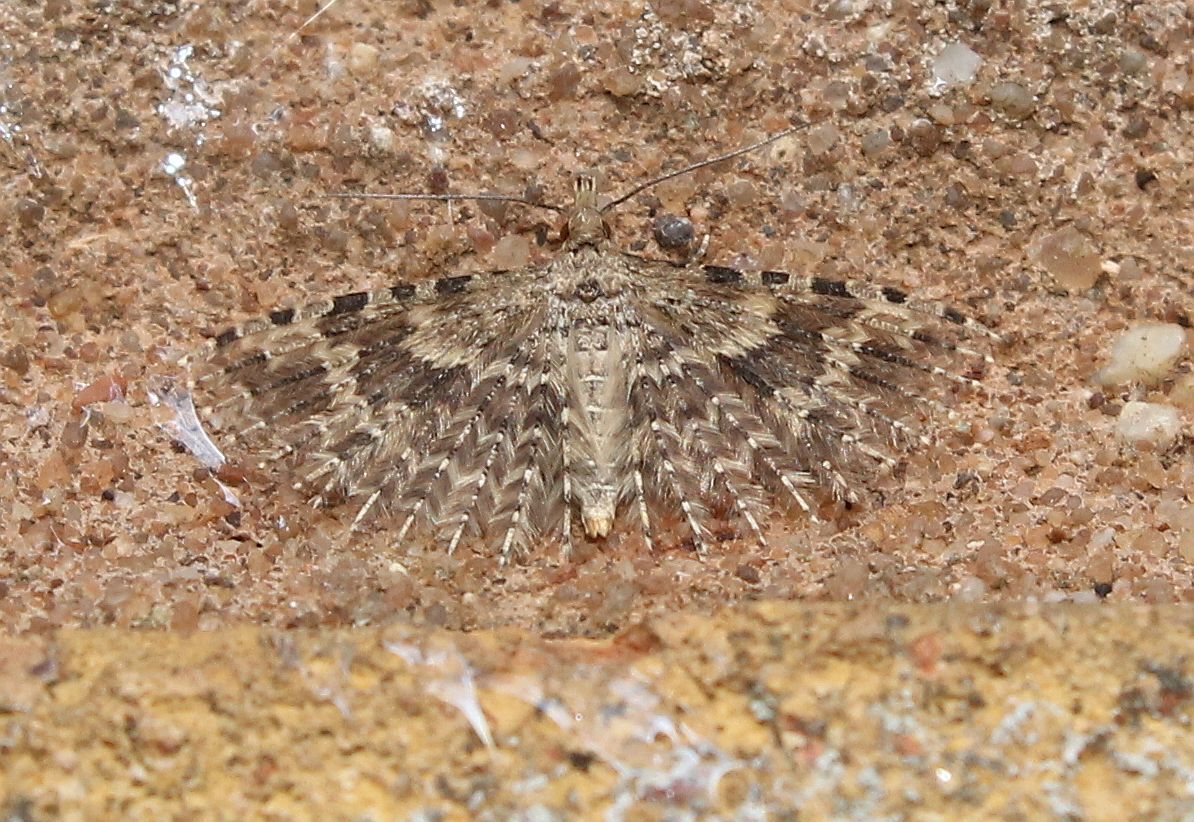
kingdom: Animalia
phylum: Arthropoda
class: Insecta
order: Lepidoptera
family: Alucitidae
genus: Alucita
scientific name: Alucita hexadactyla
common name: Twenty-plume moth
